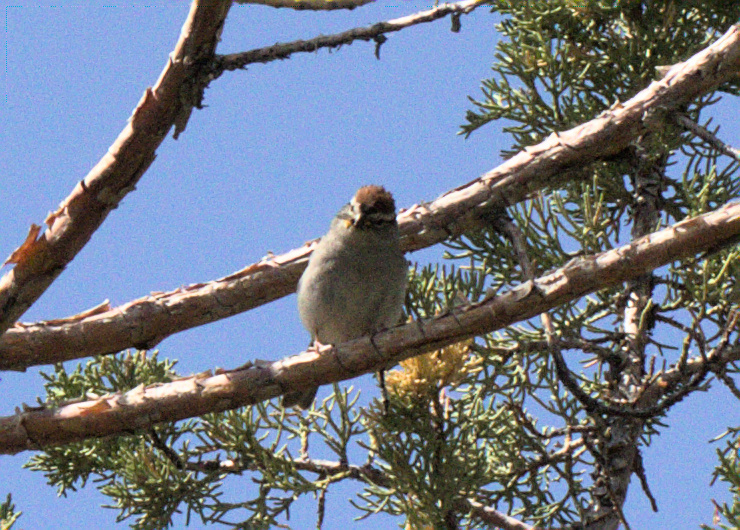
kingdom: Animalia
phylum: Chordata
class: Aves
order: Passeriformes
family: Passerellidae
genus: Spizella
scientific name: Spizella passerina
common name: Chipping sparrow
